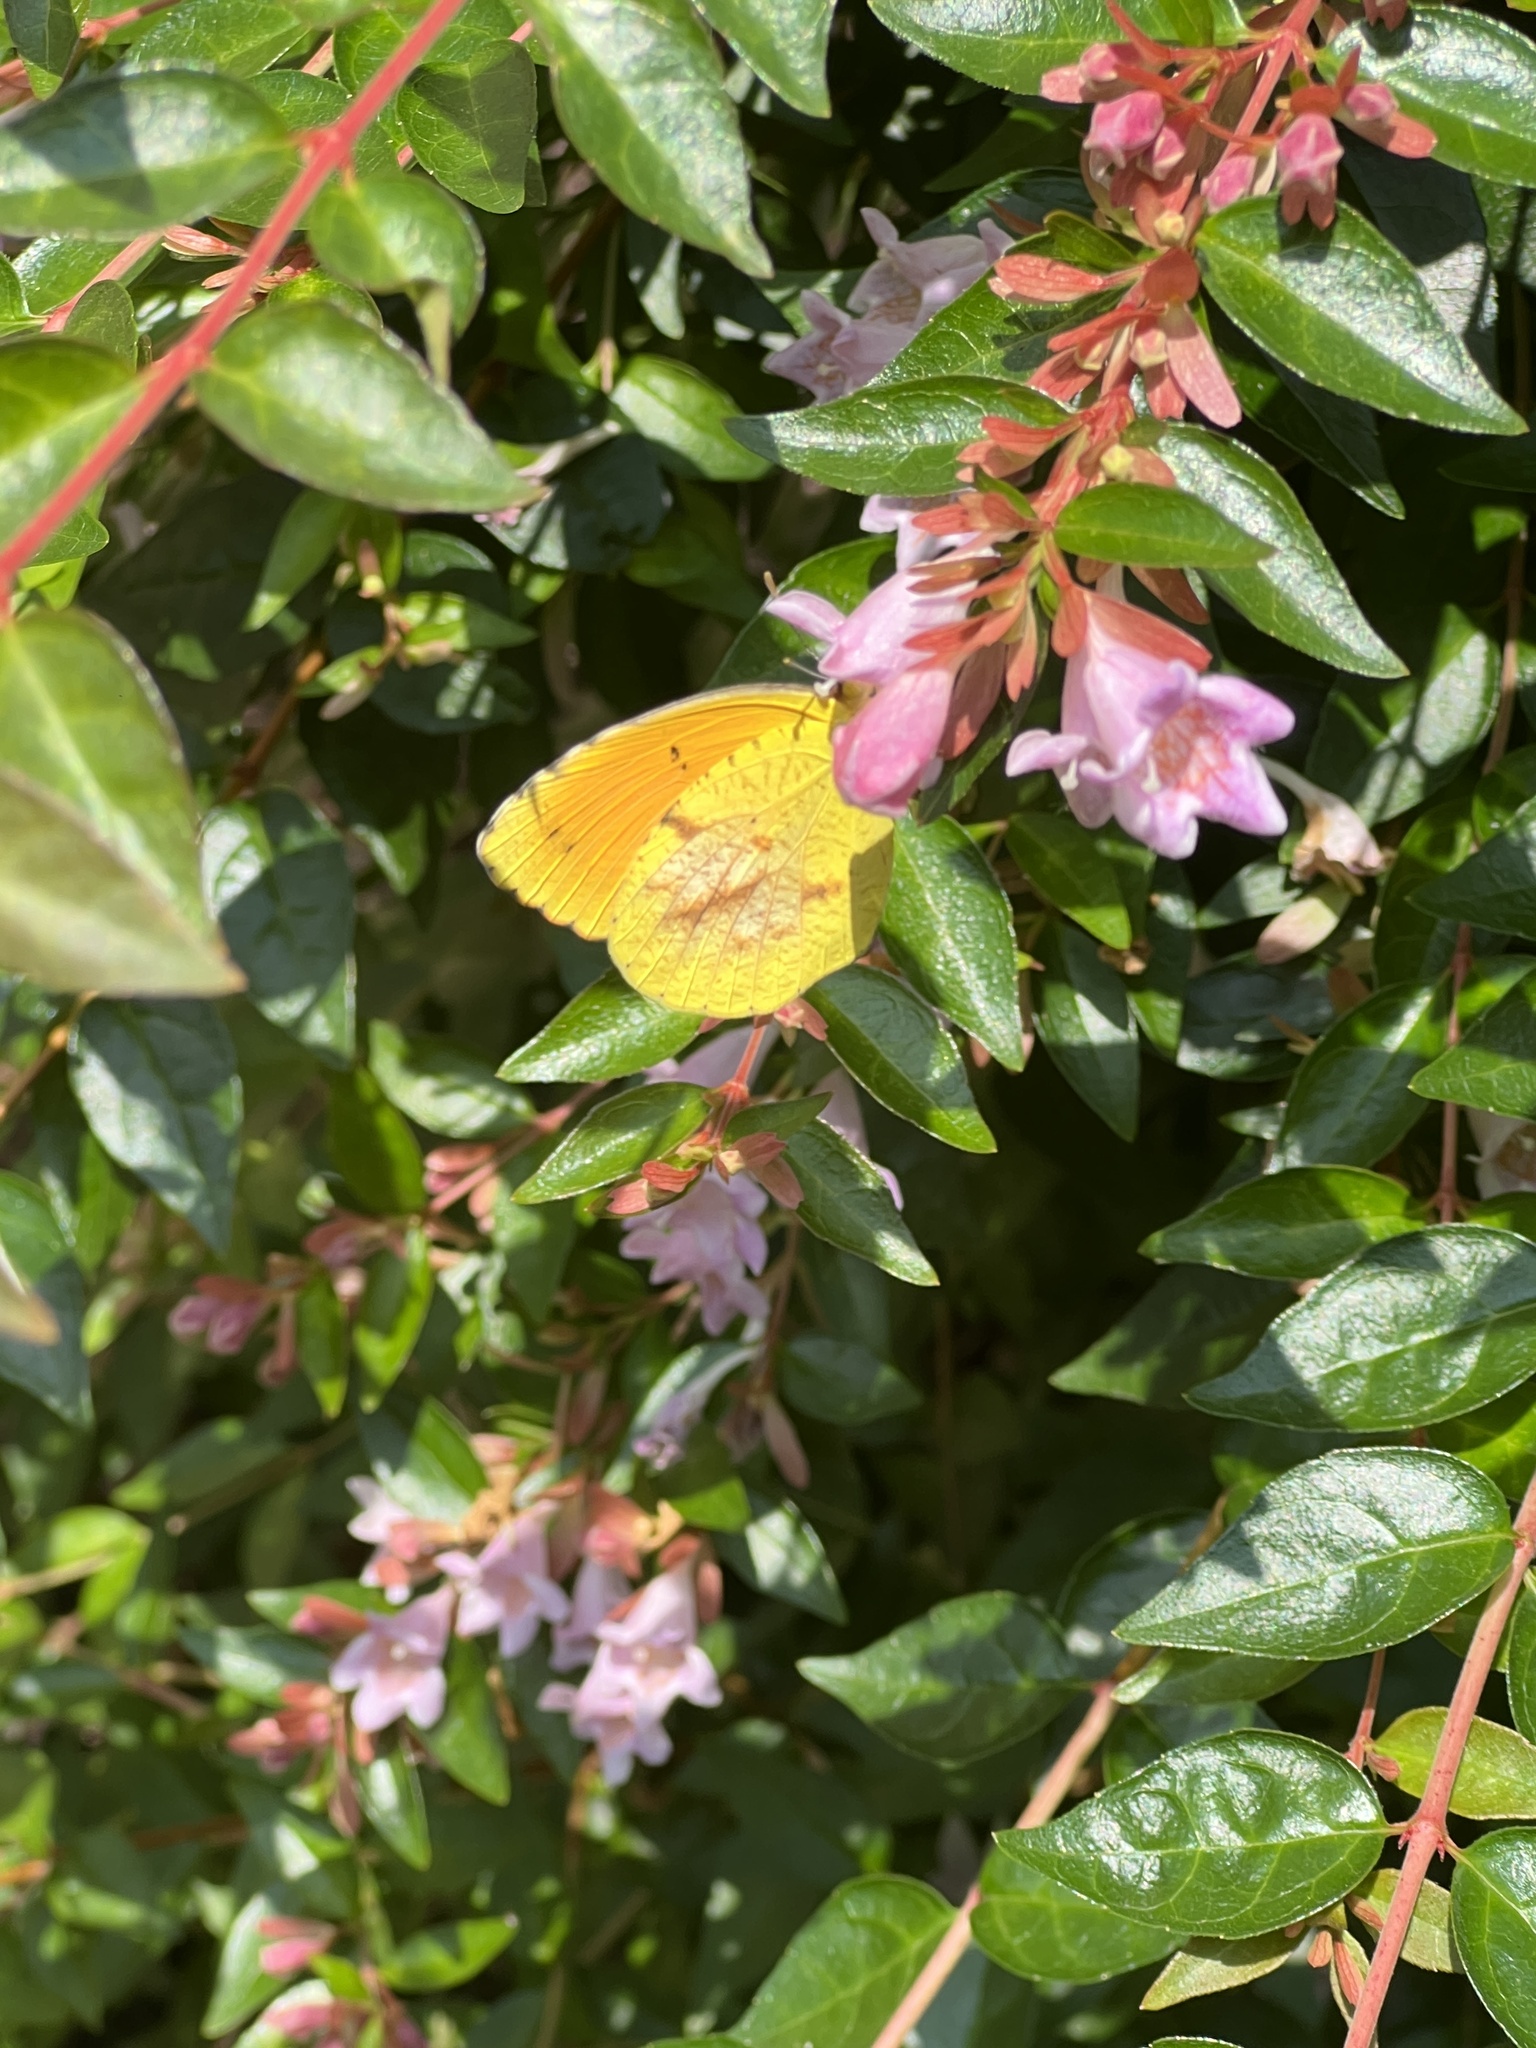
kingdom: Animalia
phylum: Arthropoda
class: Insecta
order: Lepidoptera
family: Pieridae
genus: Abaeis
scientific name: Abaeis nicippe
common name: Sleepy orange
